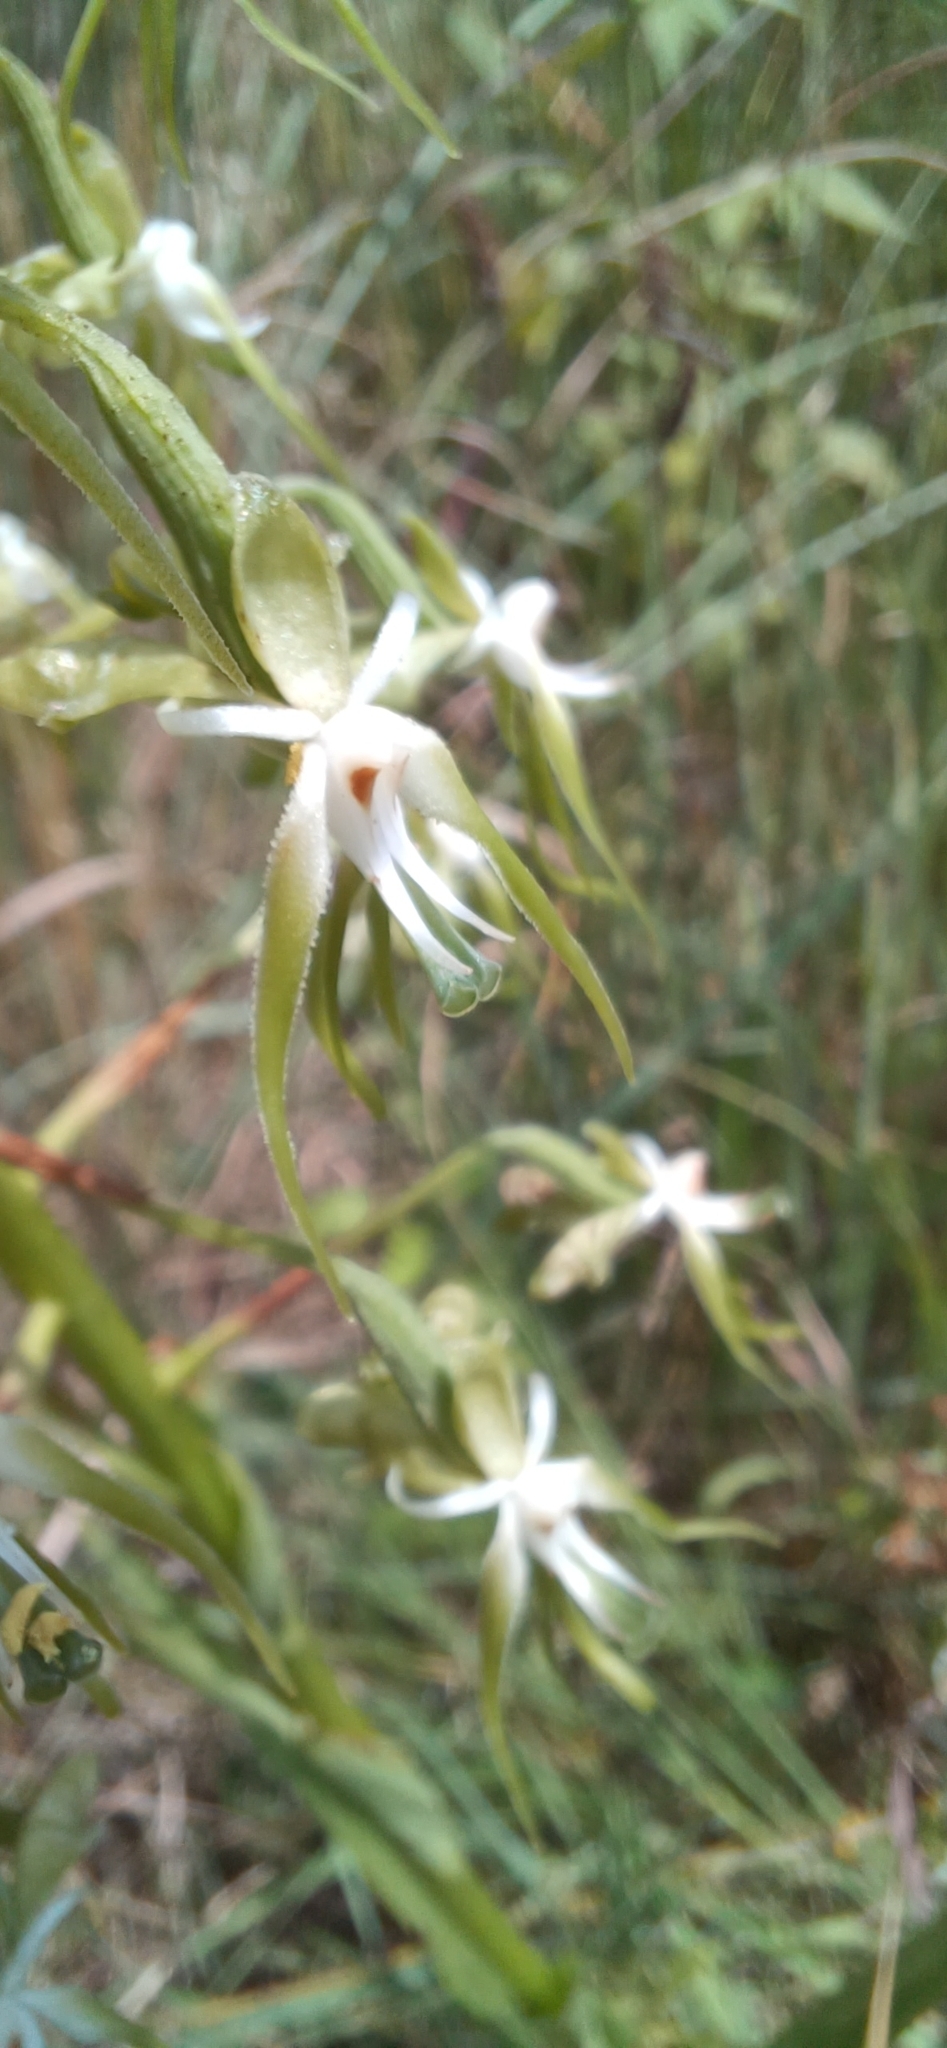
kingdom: Plantae
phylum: Tracheophyta
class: Liliopsida
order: Asparagales
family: Orchidaceae
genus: Habenaria
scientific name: Habenaria schimperiana
